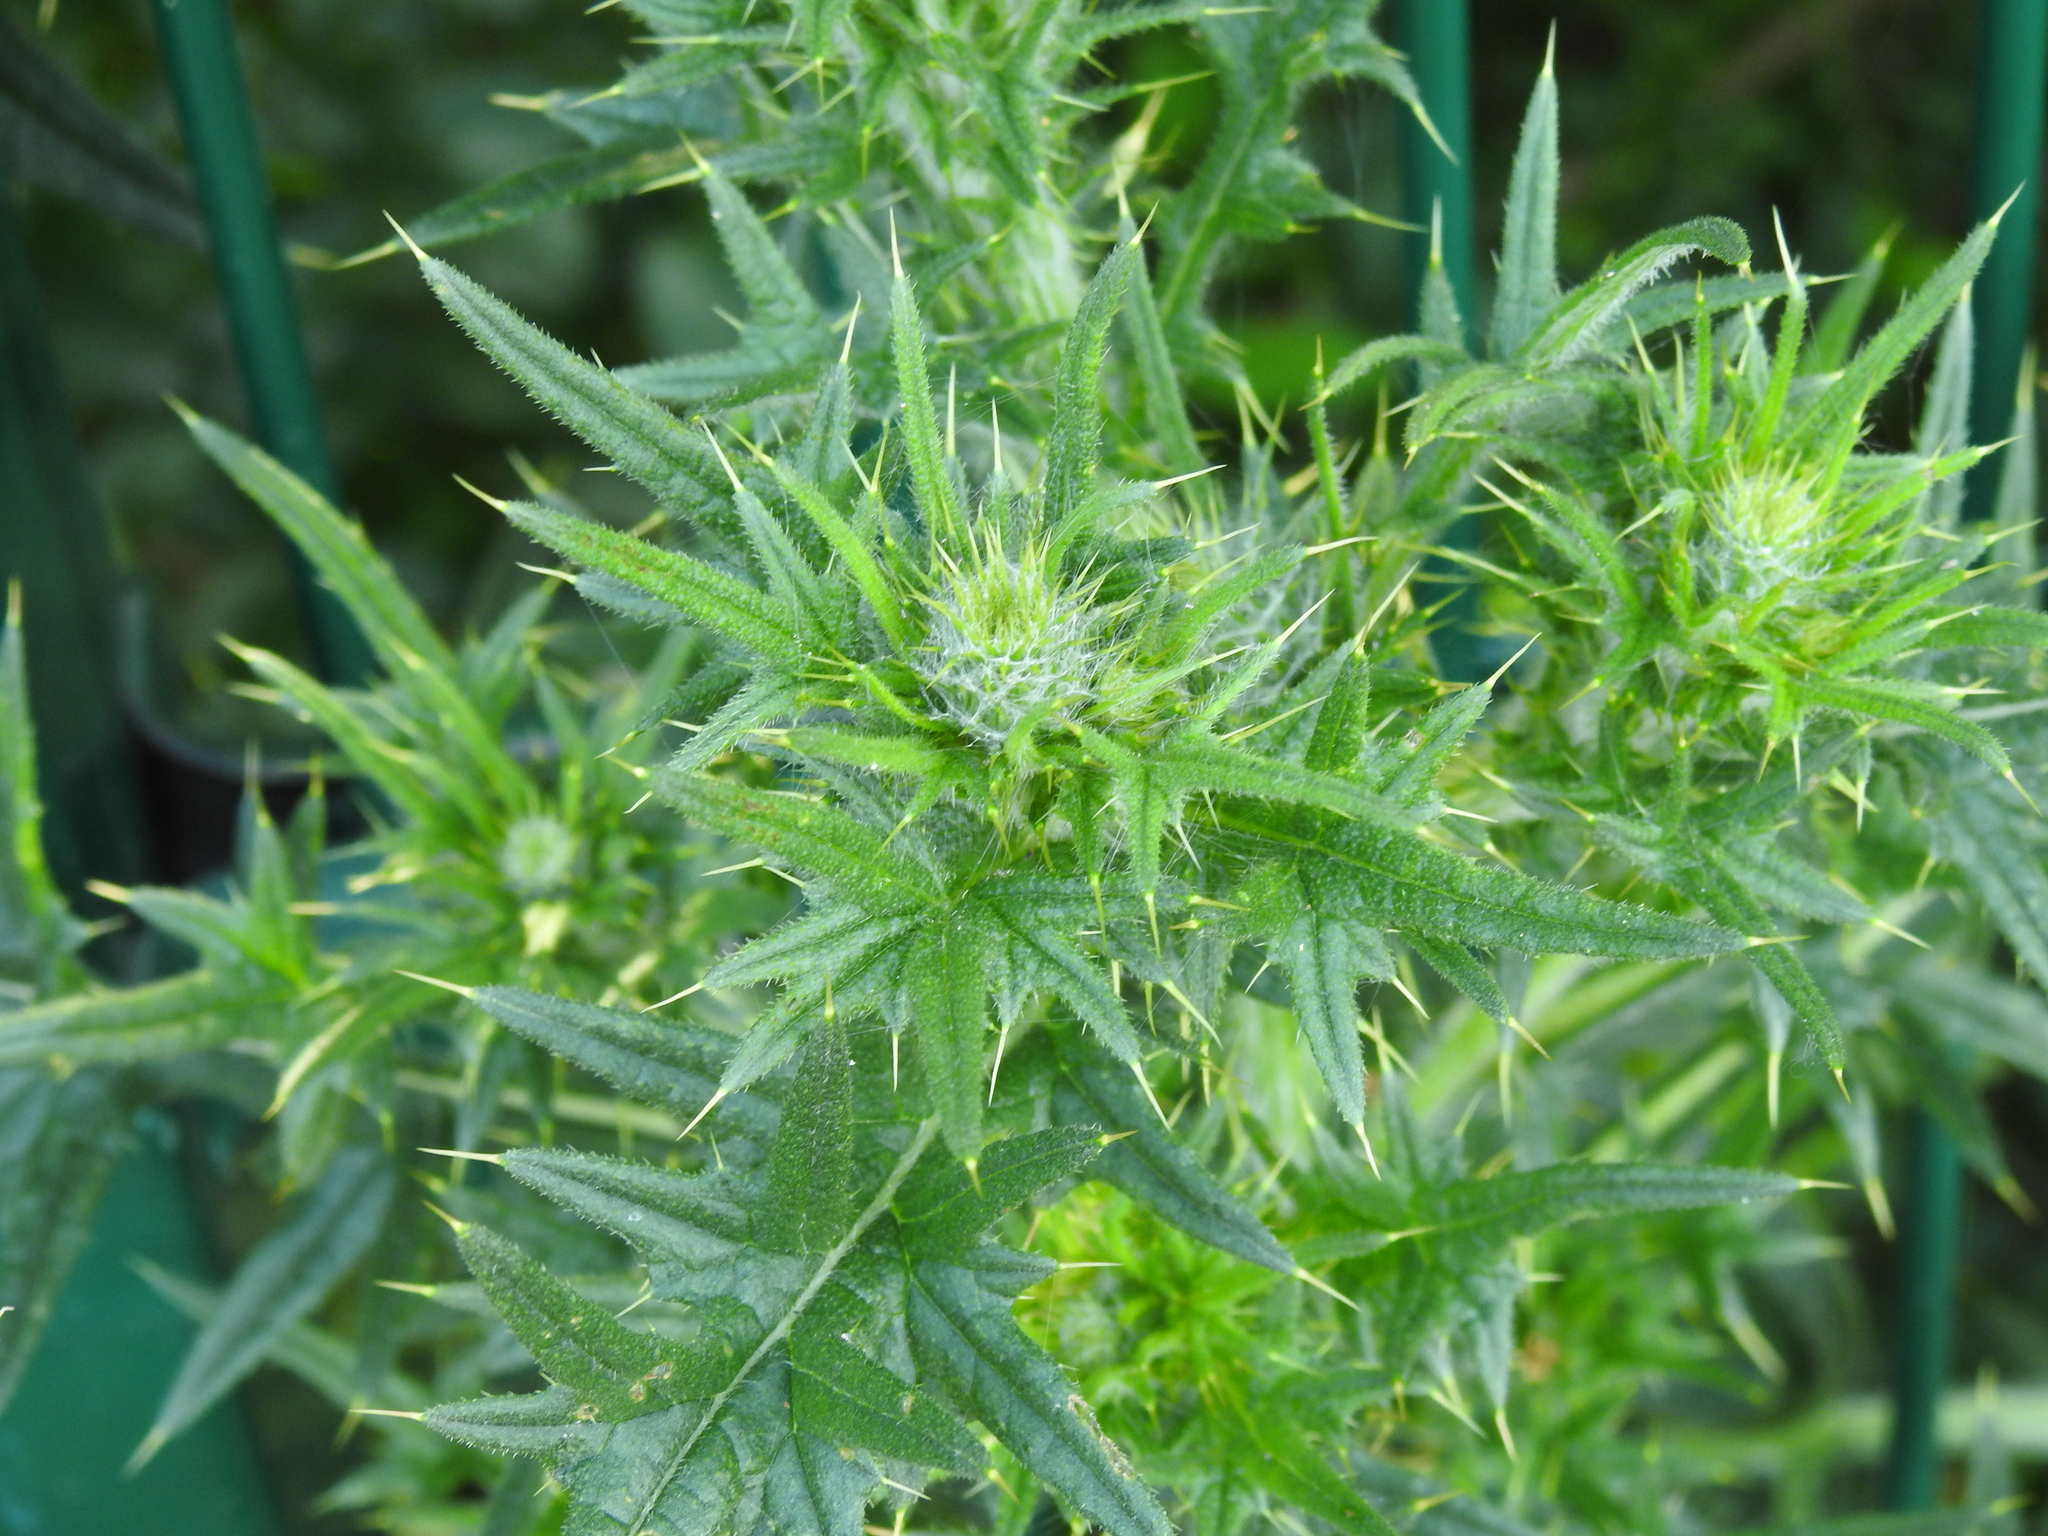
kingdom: Plantae
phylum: Tracheophyta
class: Magnoliopsida
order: Asterales
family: Asteraceae
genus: Cirsium
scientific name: Cirsium vulgare
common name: Bull thistle
